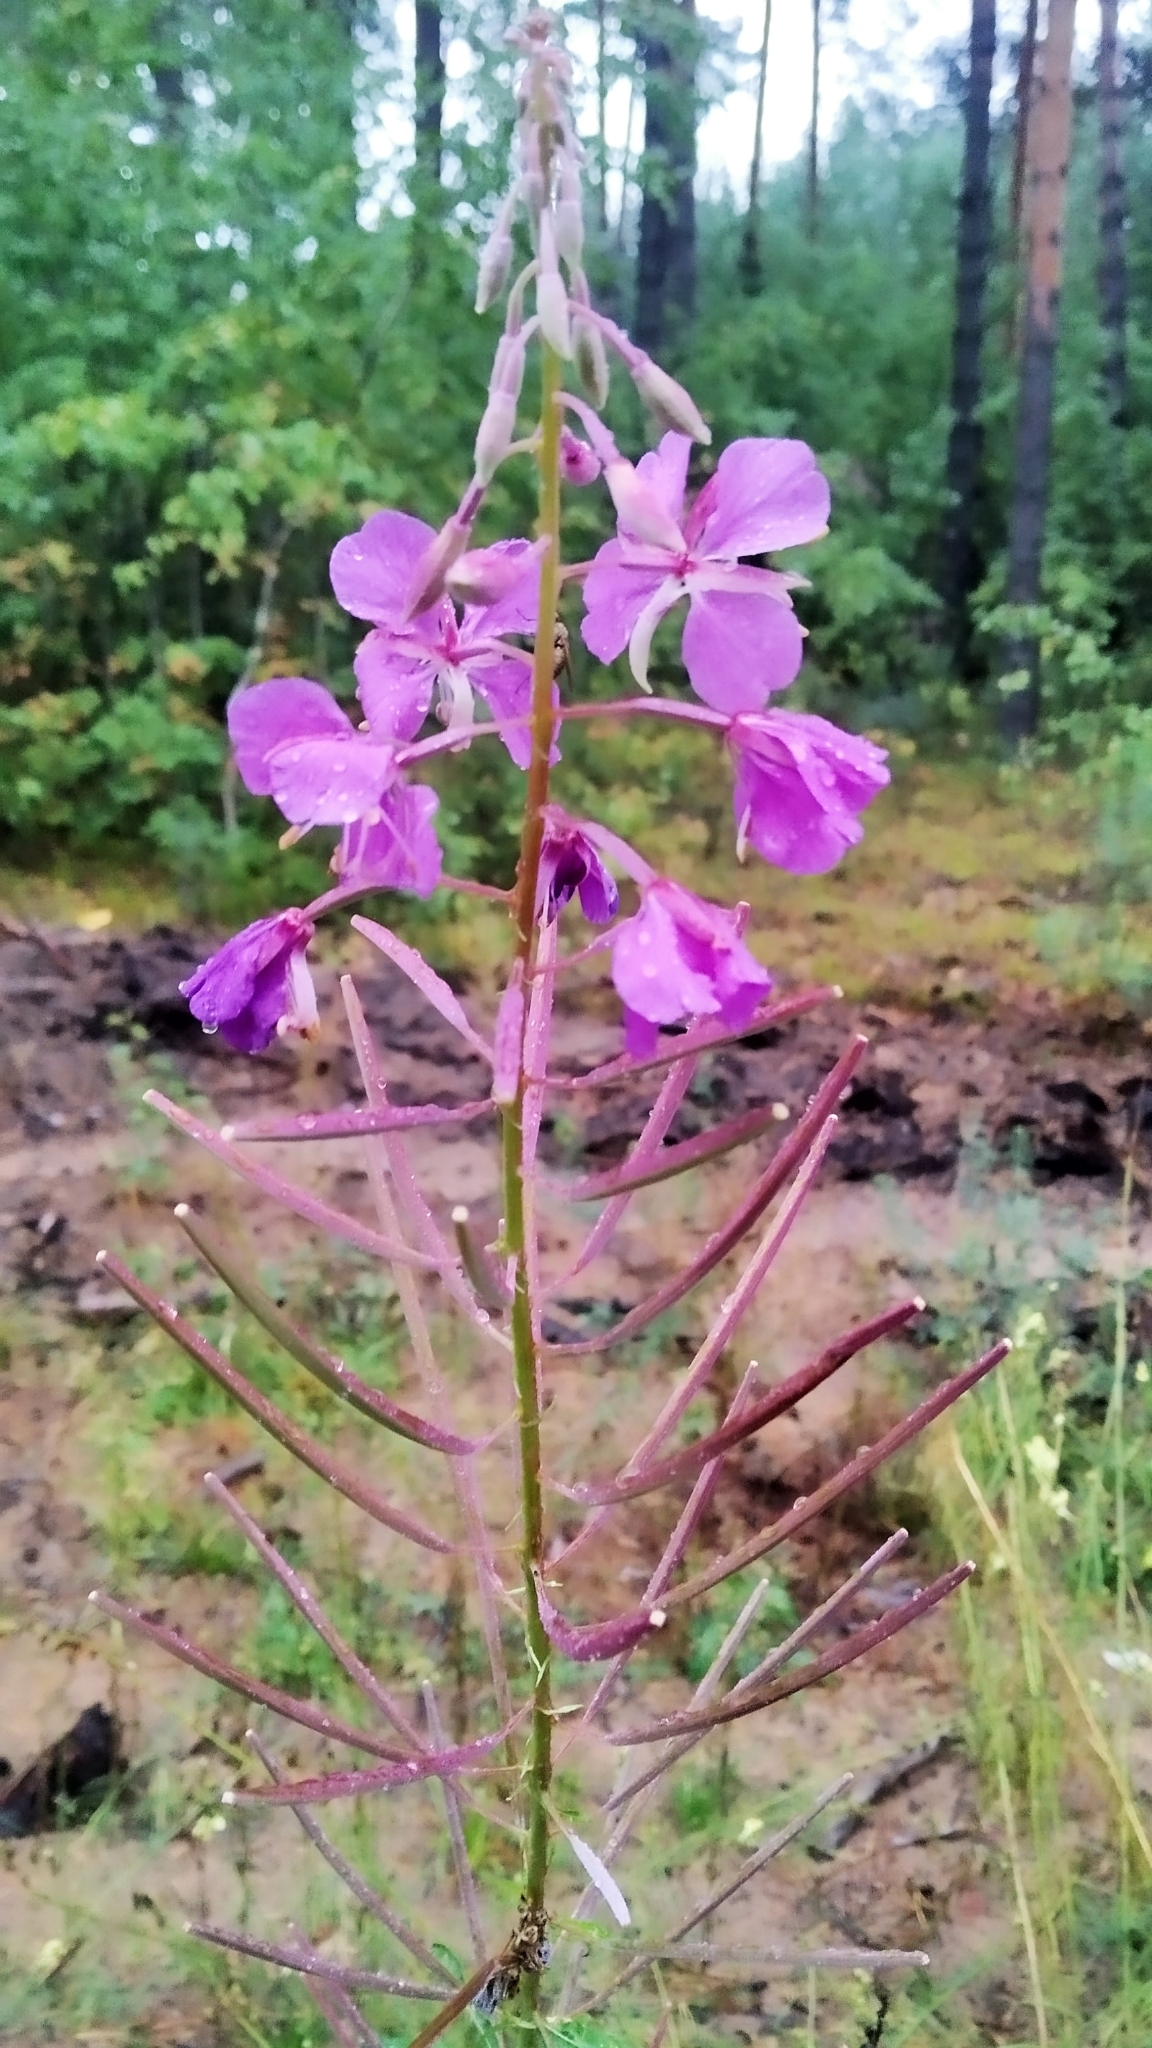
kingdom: Plantae
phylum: Tracheophyta
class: Magnoliopsida
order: Myrtales
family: Onagraceae
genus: Chamaenerion
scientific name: Chamaenerion angustifolium
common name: Fireweed
